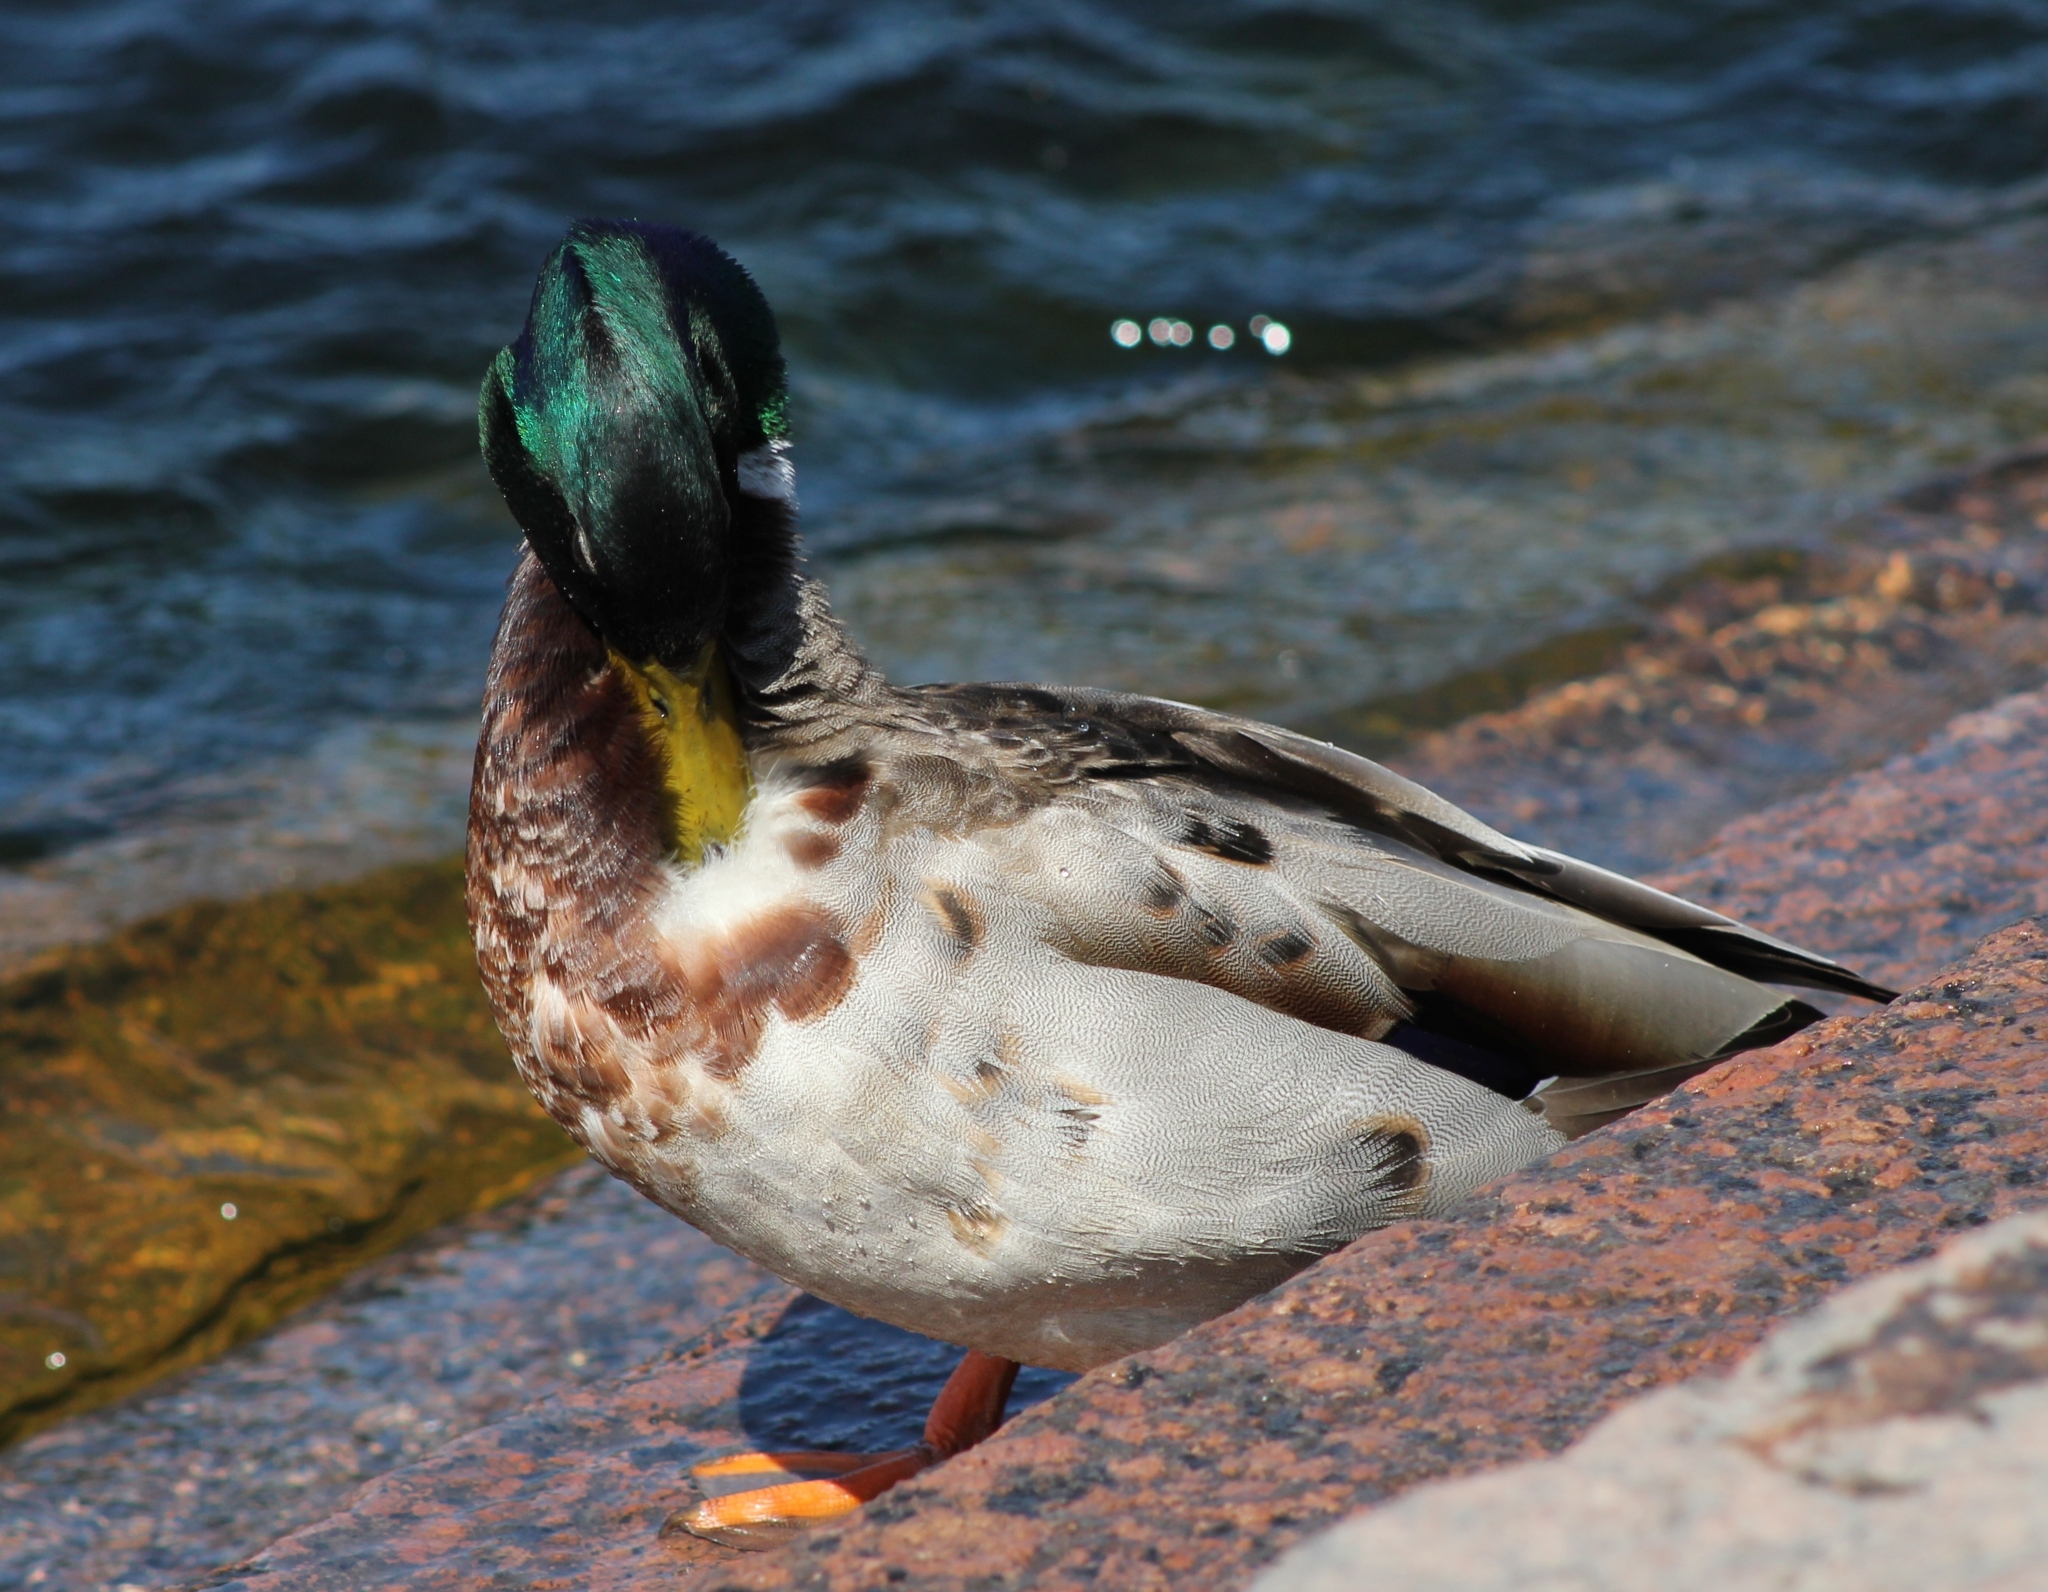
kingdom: Animalia
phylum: Chordata
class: Aves
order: Anseriformes
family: Anatidae
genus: Anas
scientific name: Anas platyrhynchos
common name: Mallard
